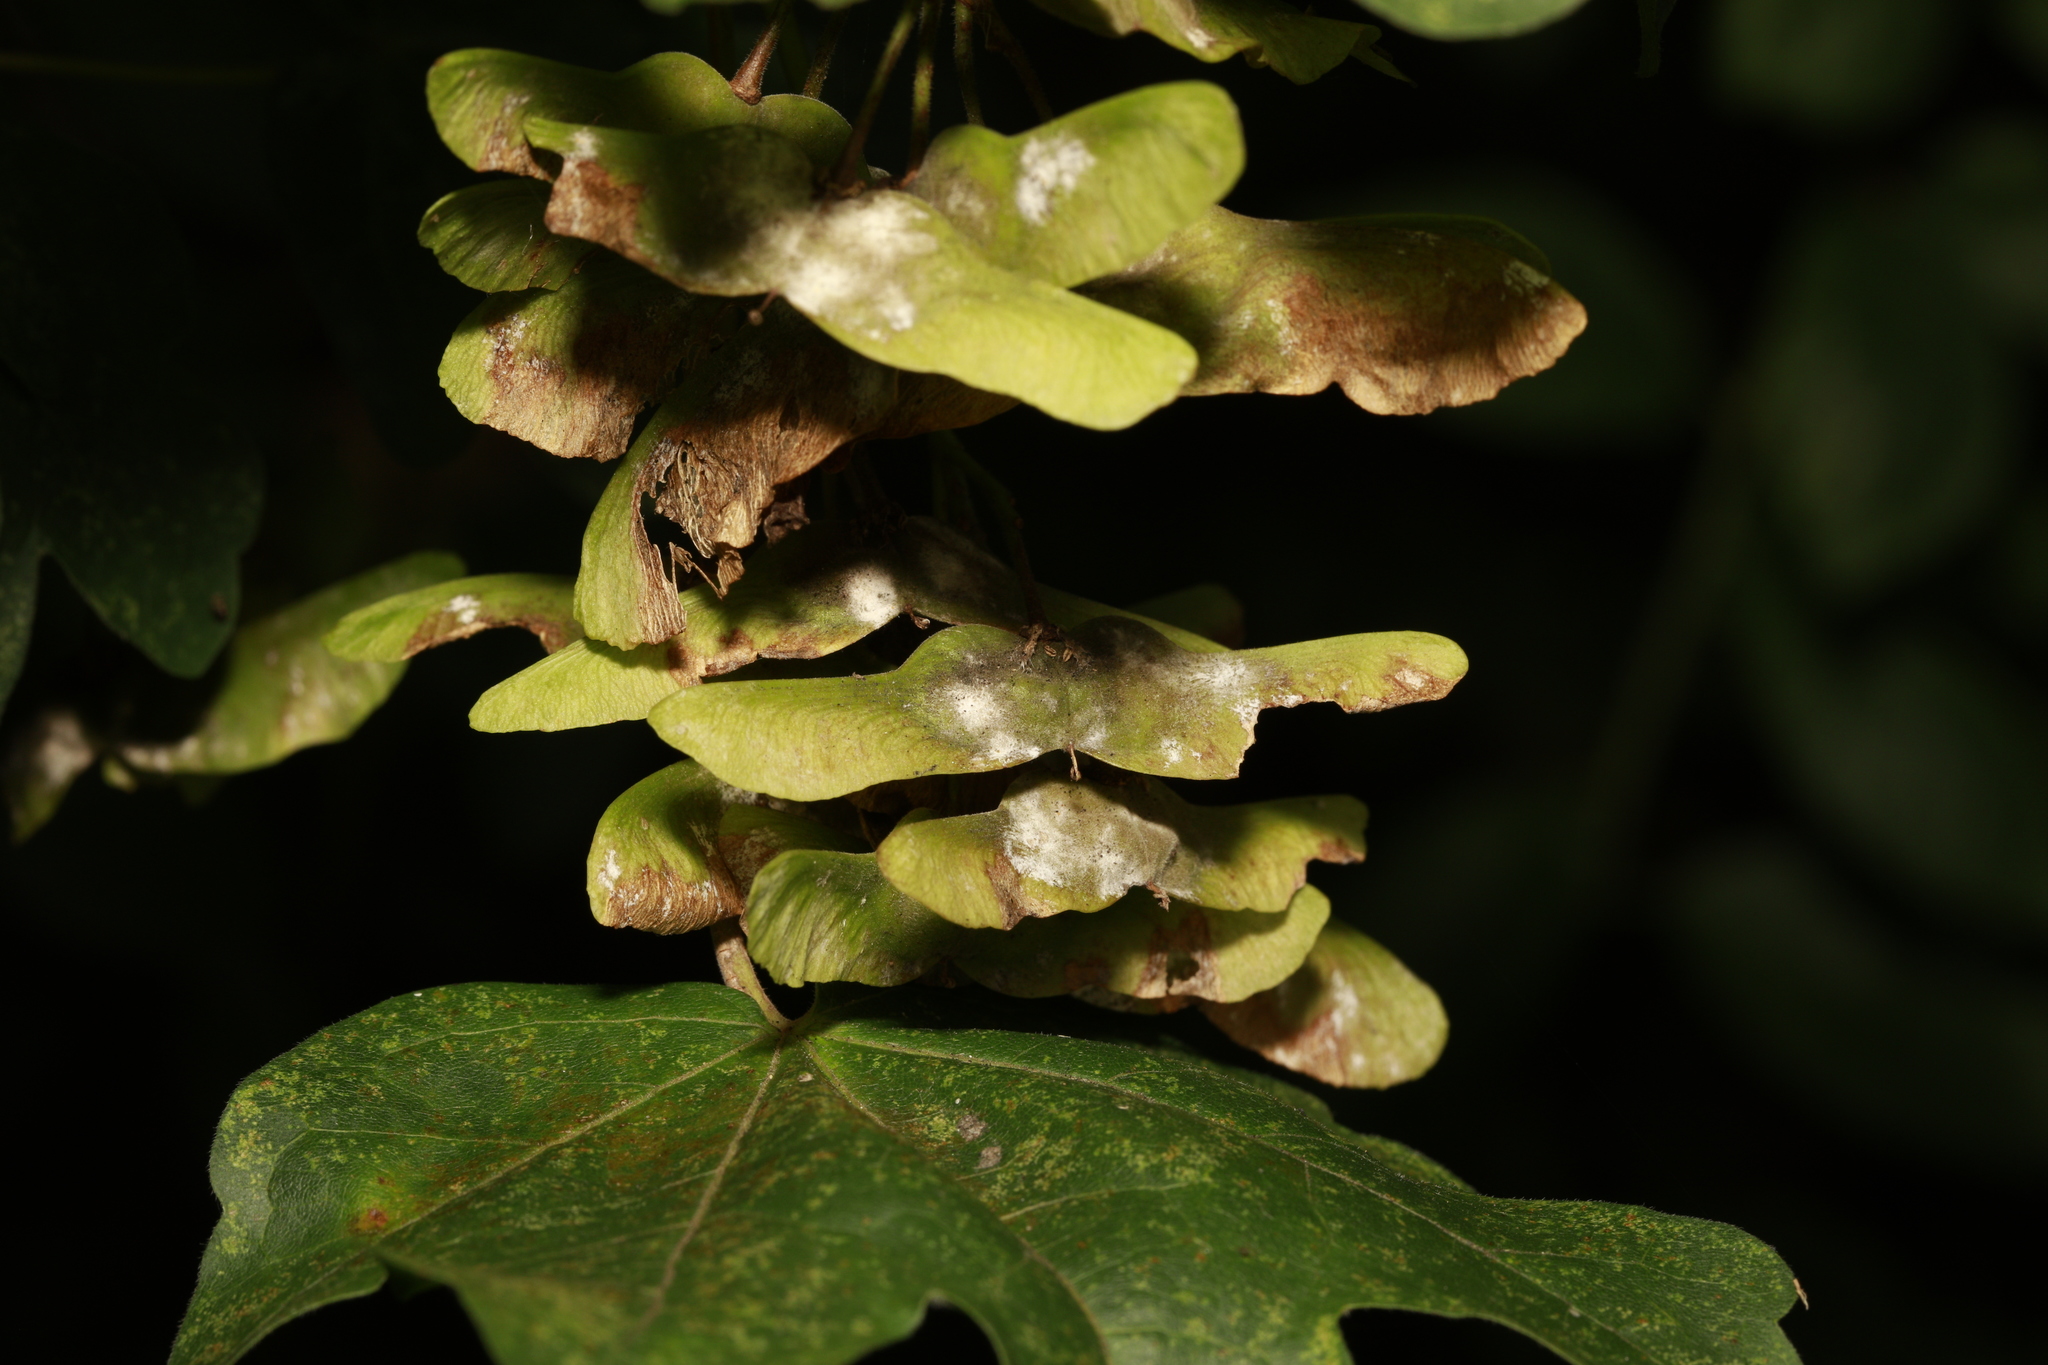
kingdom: Fungi
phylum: Ascomycota
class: Leotiomycetes
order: Helotiales
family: Erysiphaceae
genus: Sawadaea
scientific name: Sawadaea bicornis
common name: Maple mildew
